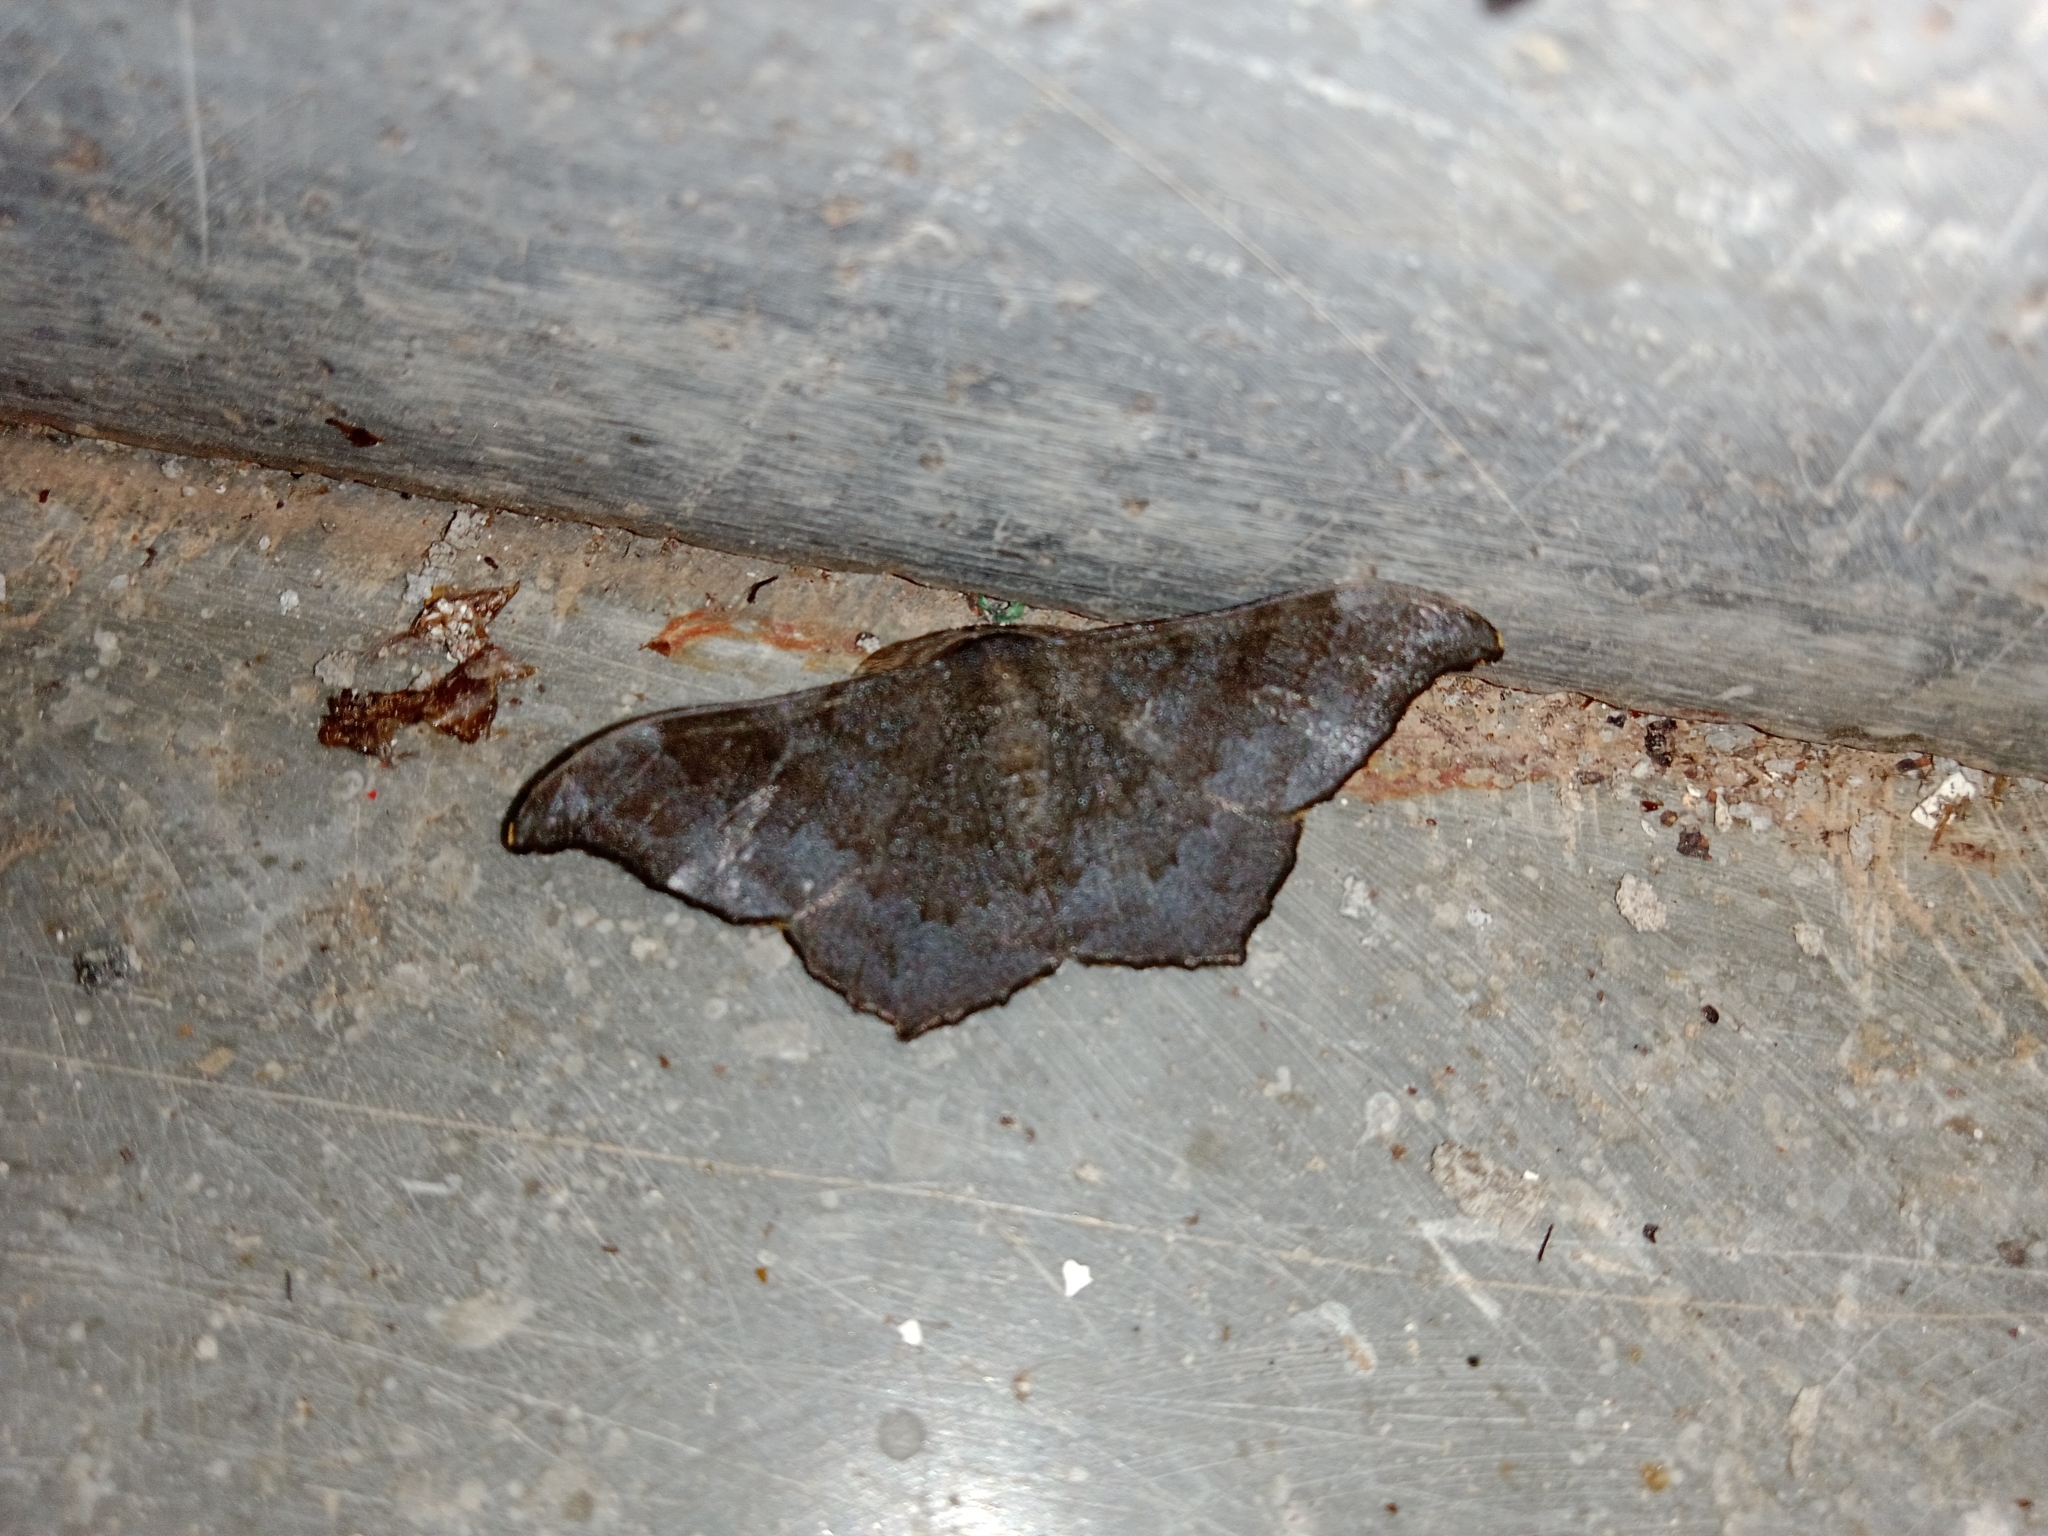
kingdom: Animalia
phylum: Arthropoda
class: Insecta
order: Lepidoptera
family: Geometridae
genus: Hyposidra
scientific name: Hyposidra talaca
